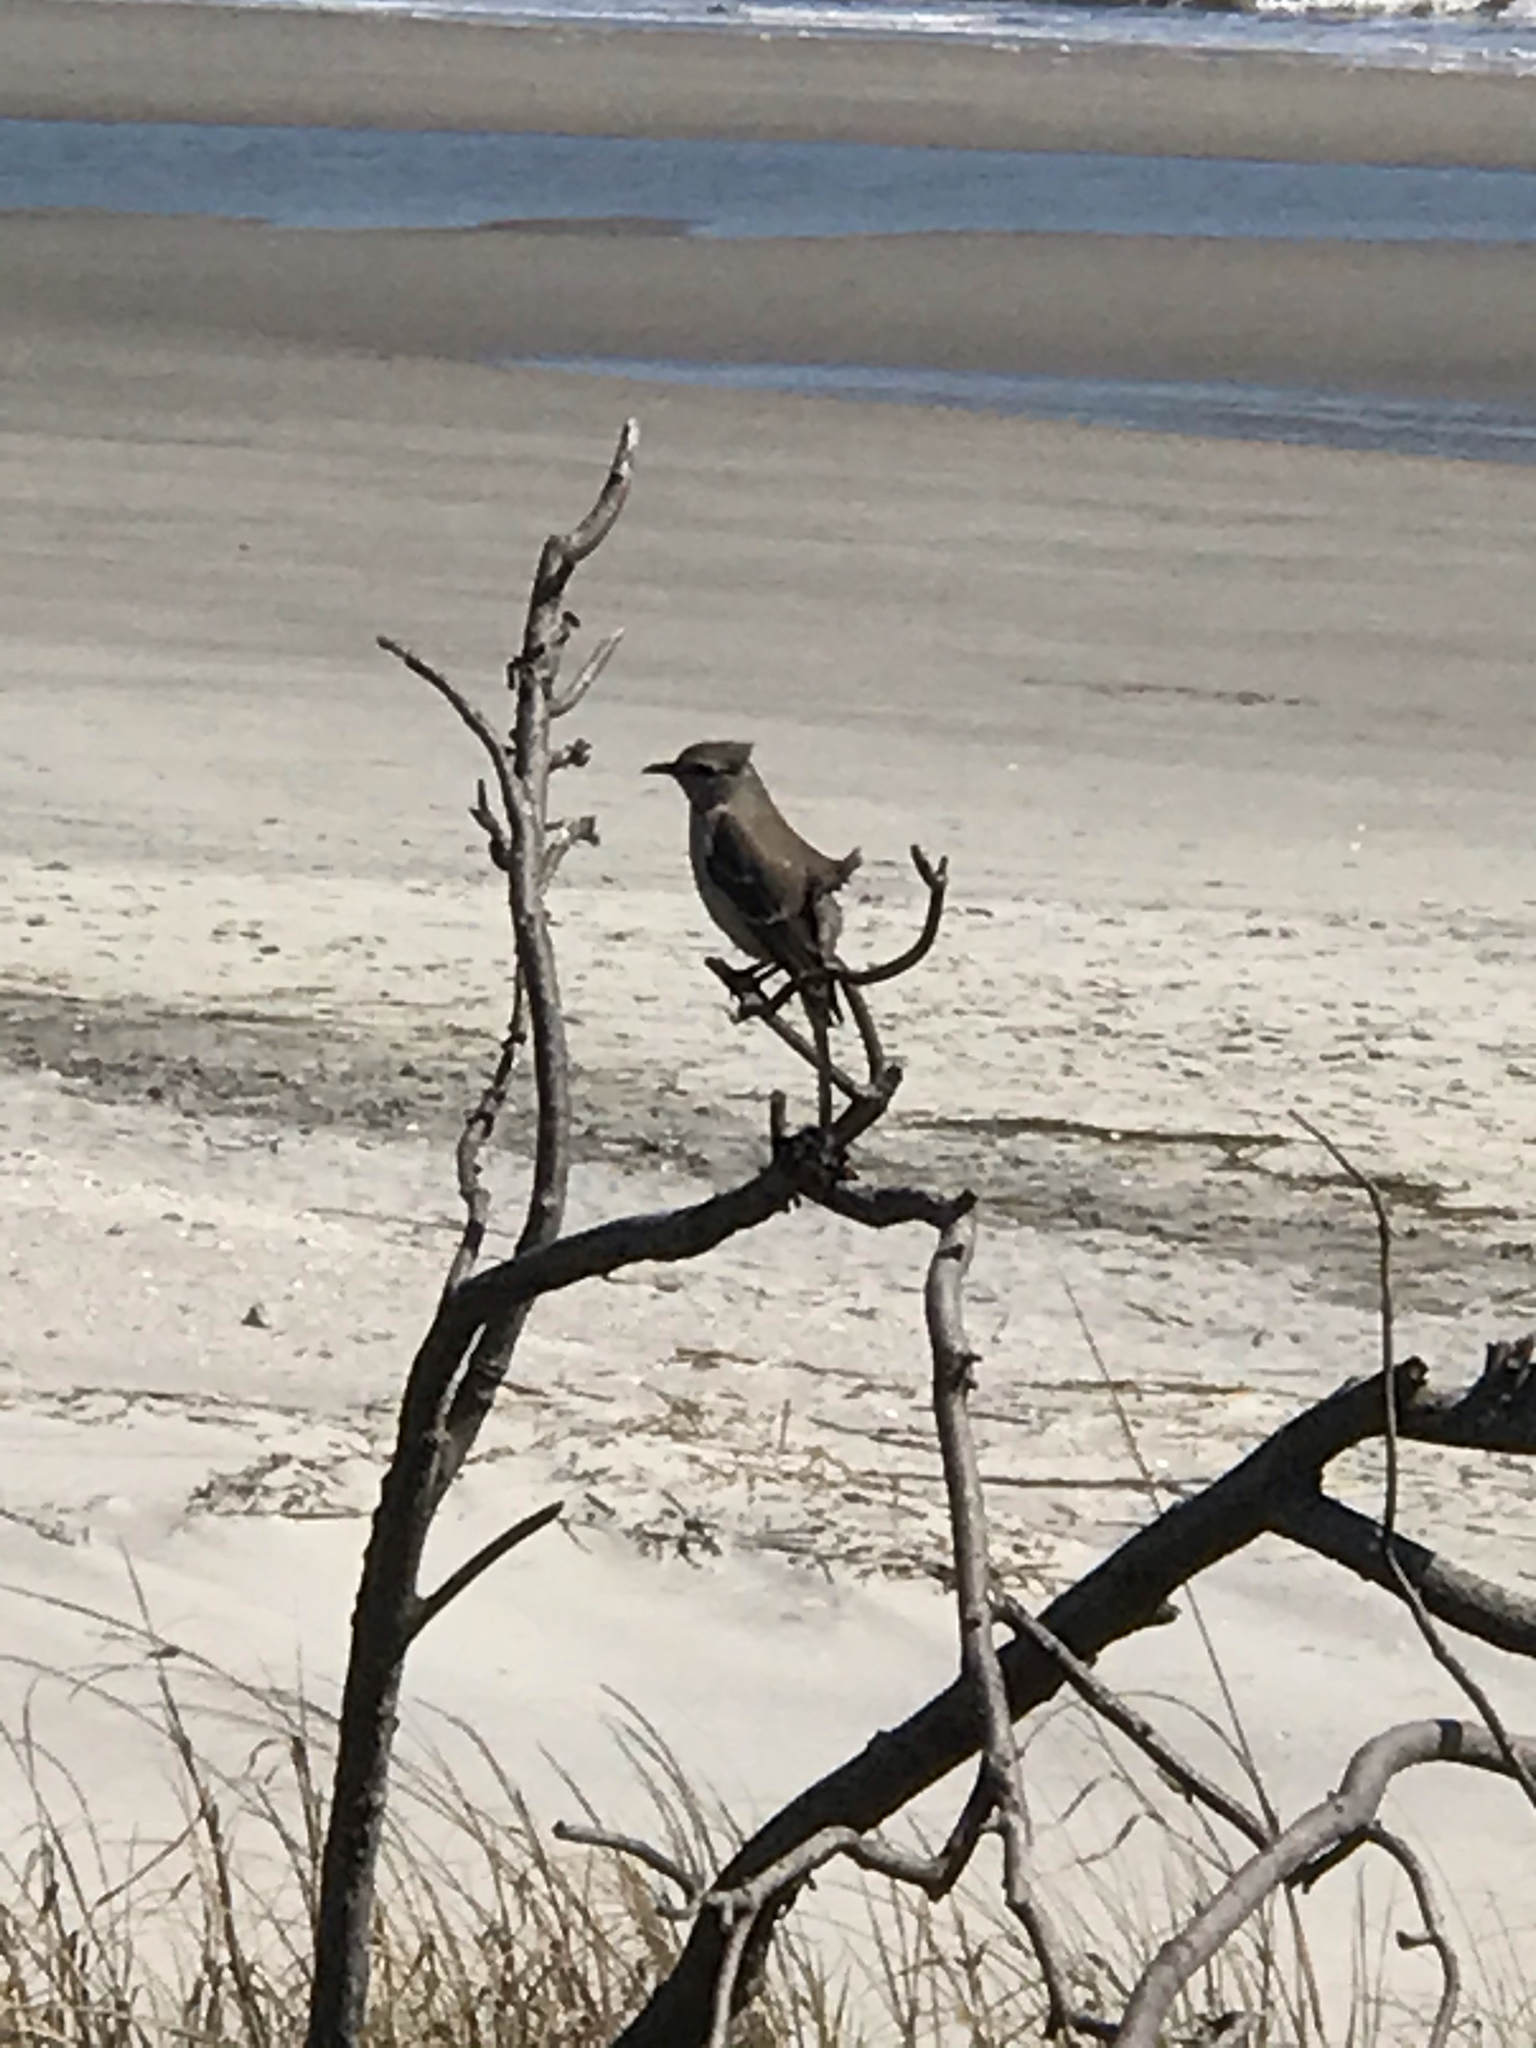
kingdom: Animalia
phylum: Chordata
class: Aves
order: Passeriformes
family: Mimidae
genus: Mimus
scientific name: Mimus polyglottos
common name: Northern mockingbird
